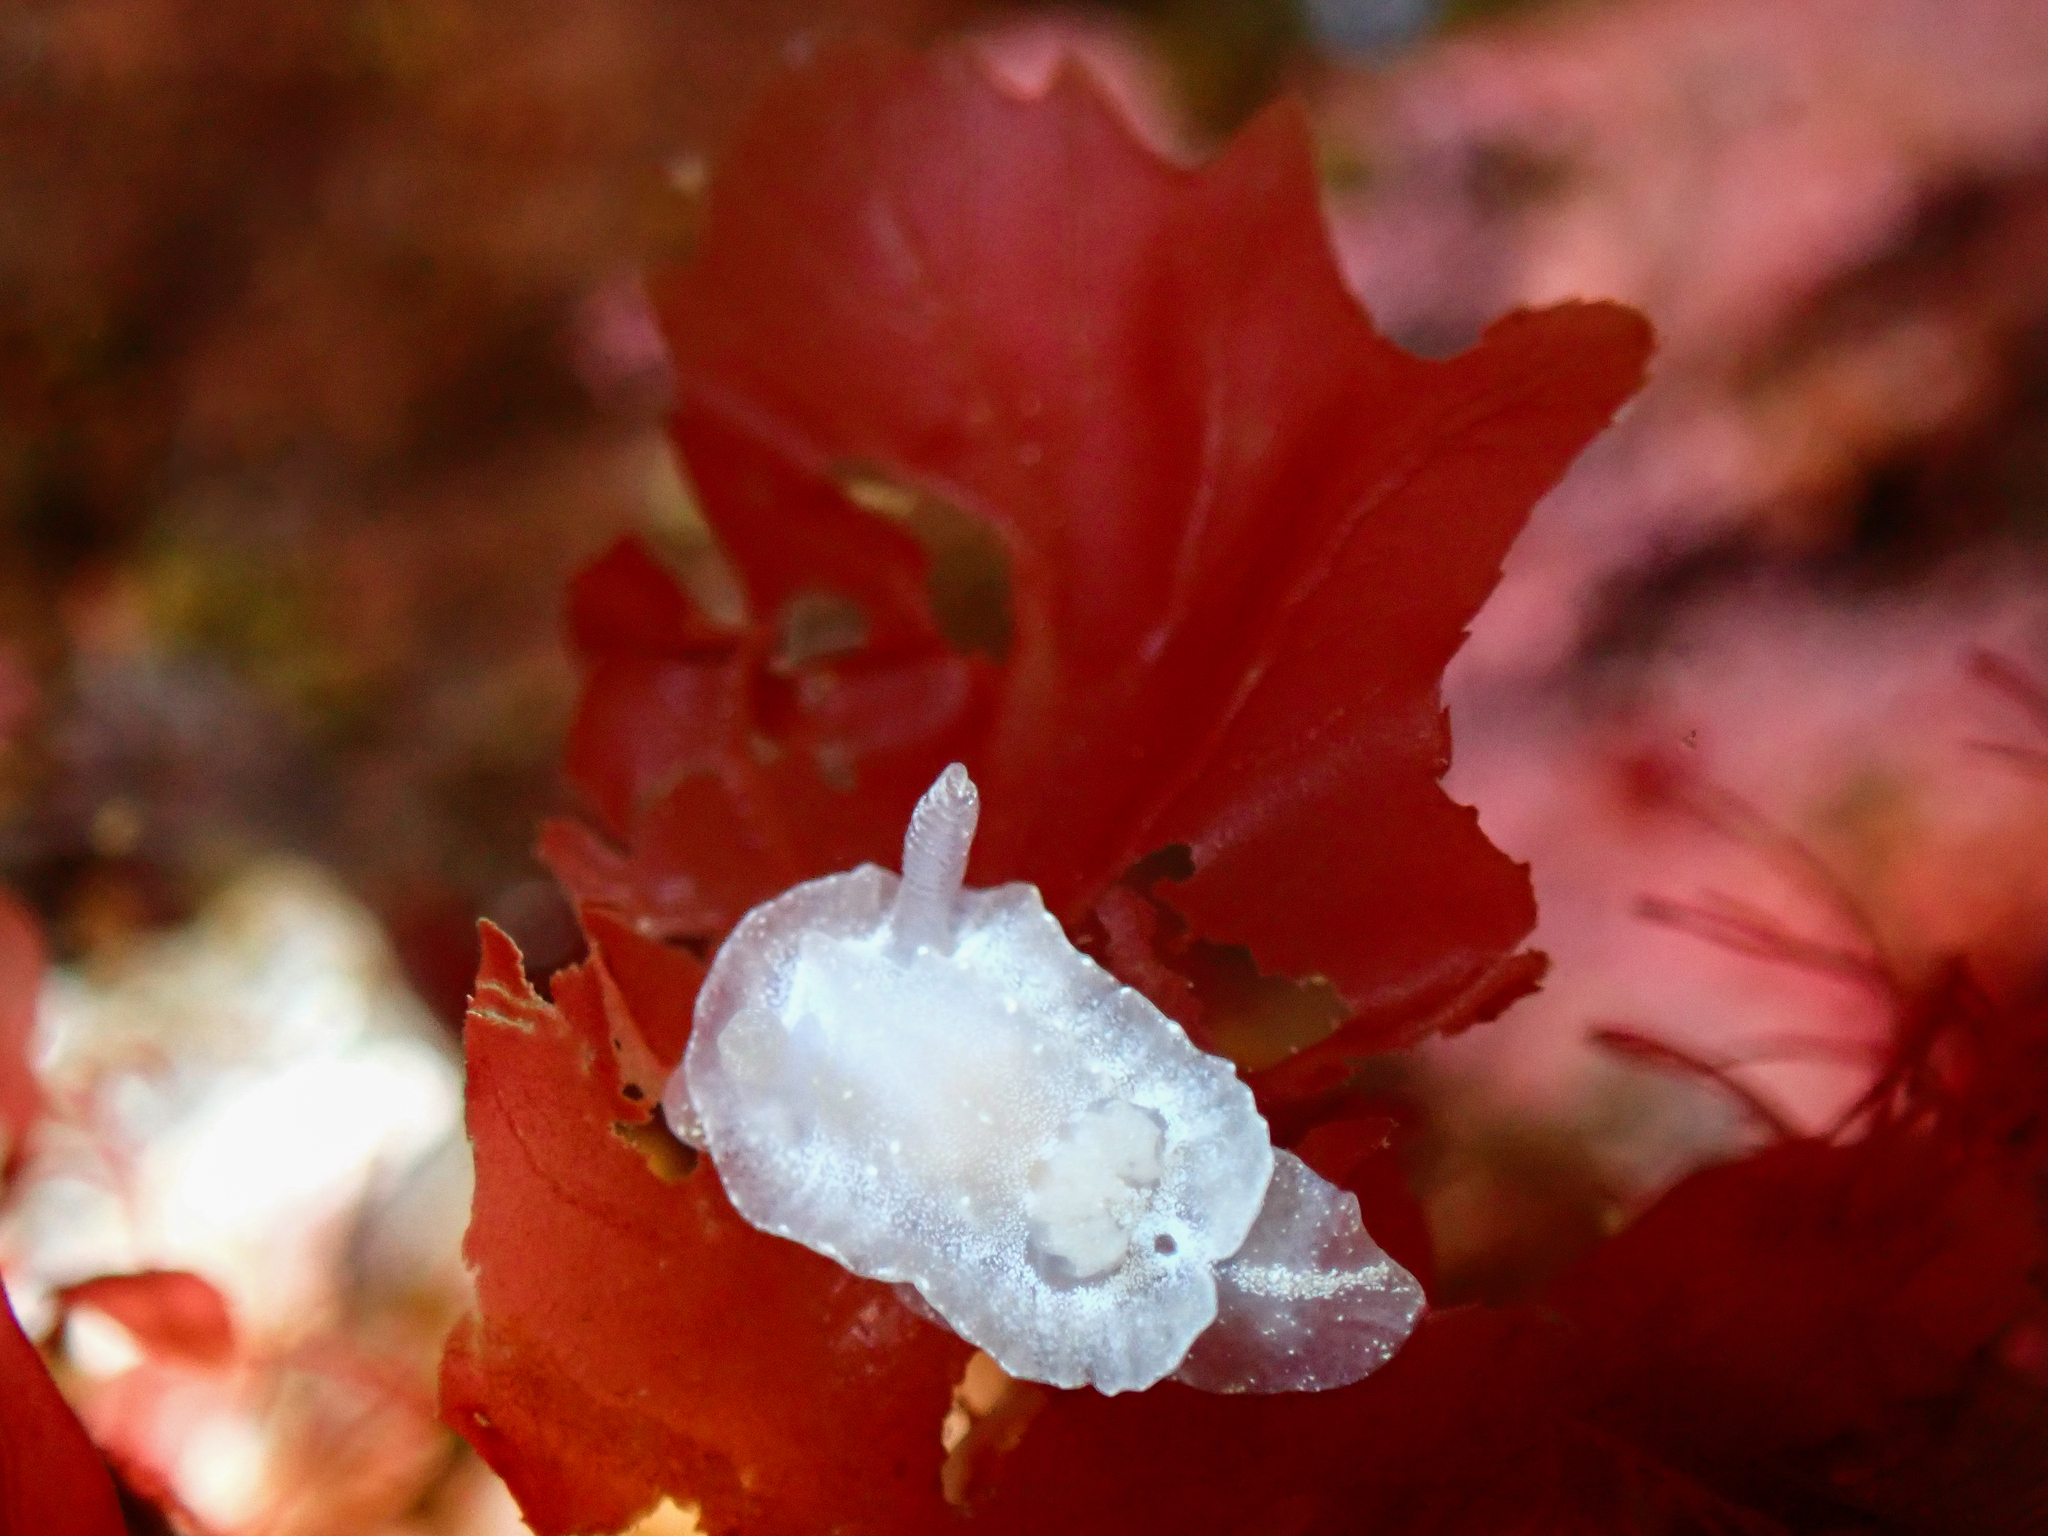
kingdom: Animalia
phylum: Mollusca
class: Gastropoda
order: Nudibranchia
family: Goniodorididae
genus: Okenia
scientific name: Okenia
